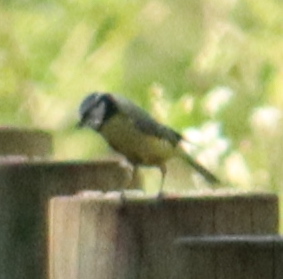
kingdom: Animalia
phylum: Chordata
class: Aves
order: Passeriformes
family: Paridae
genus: Cyanistes
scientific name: Cyanistes caeruleus
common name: Eurasian blue tit
